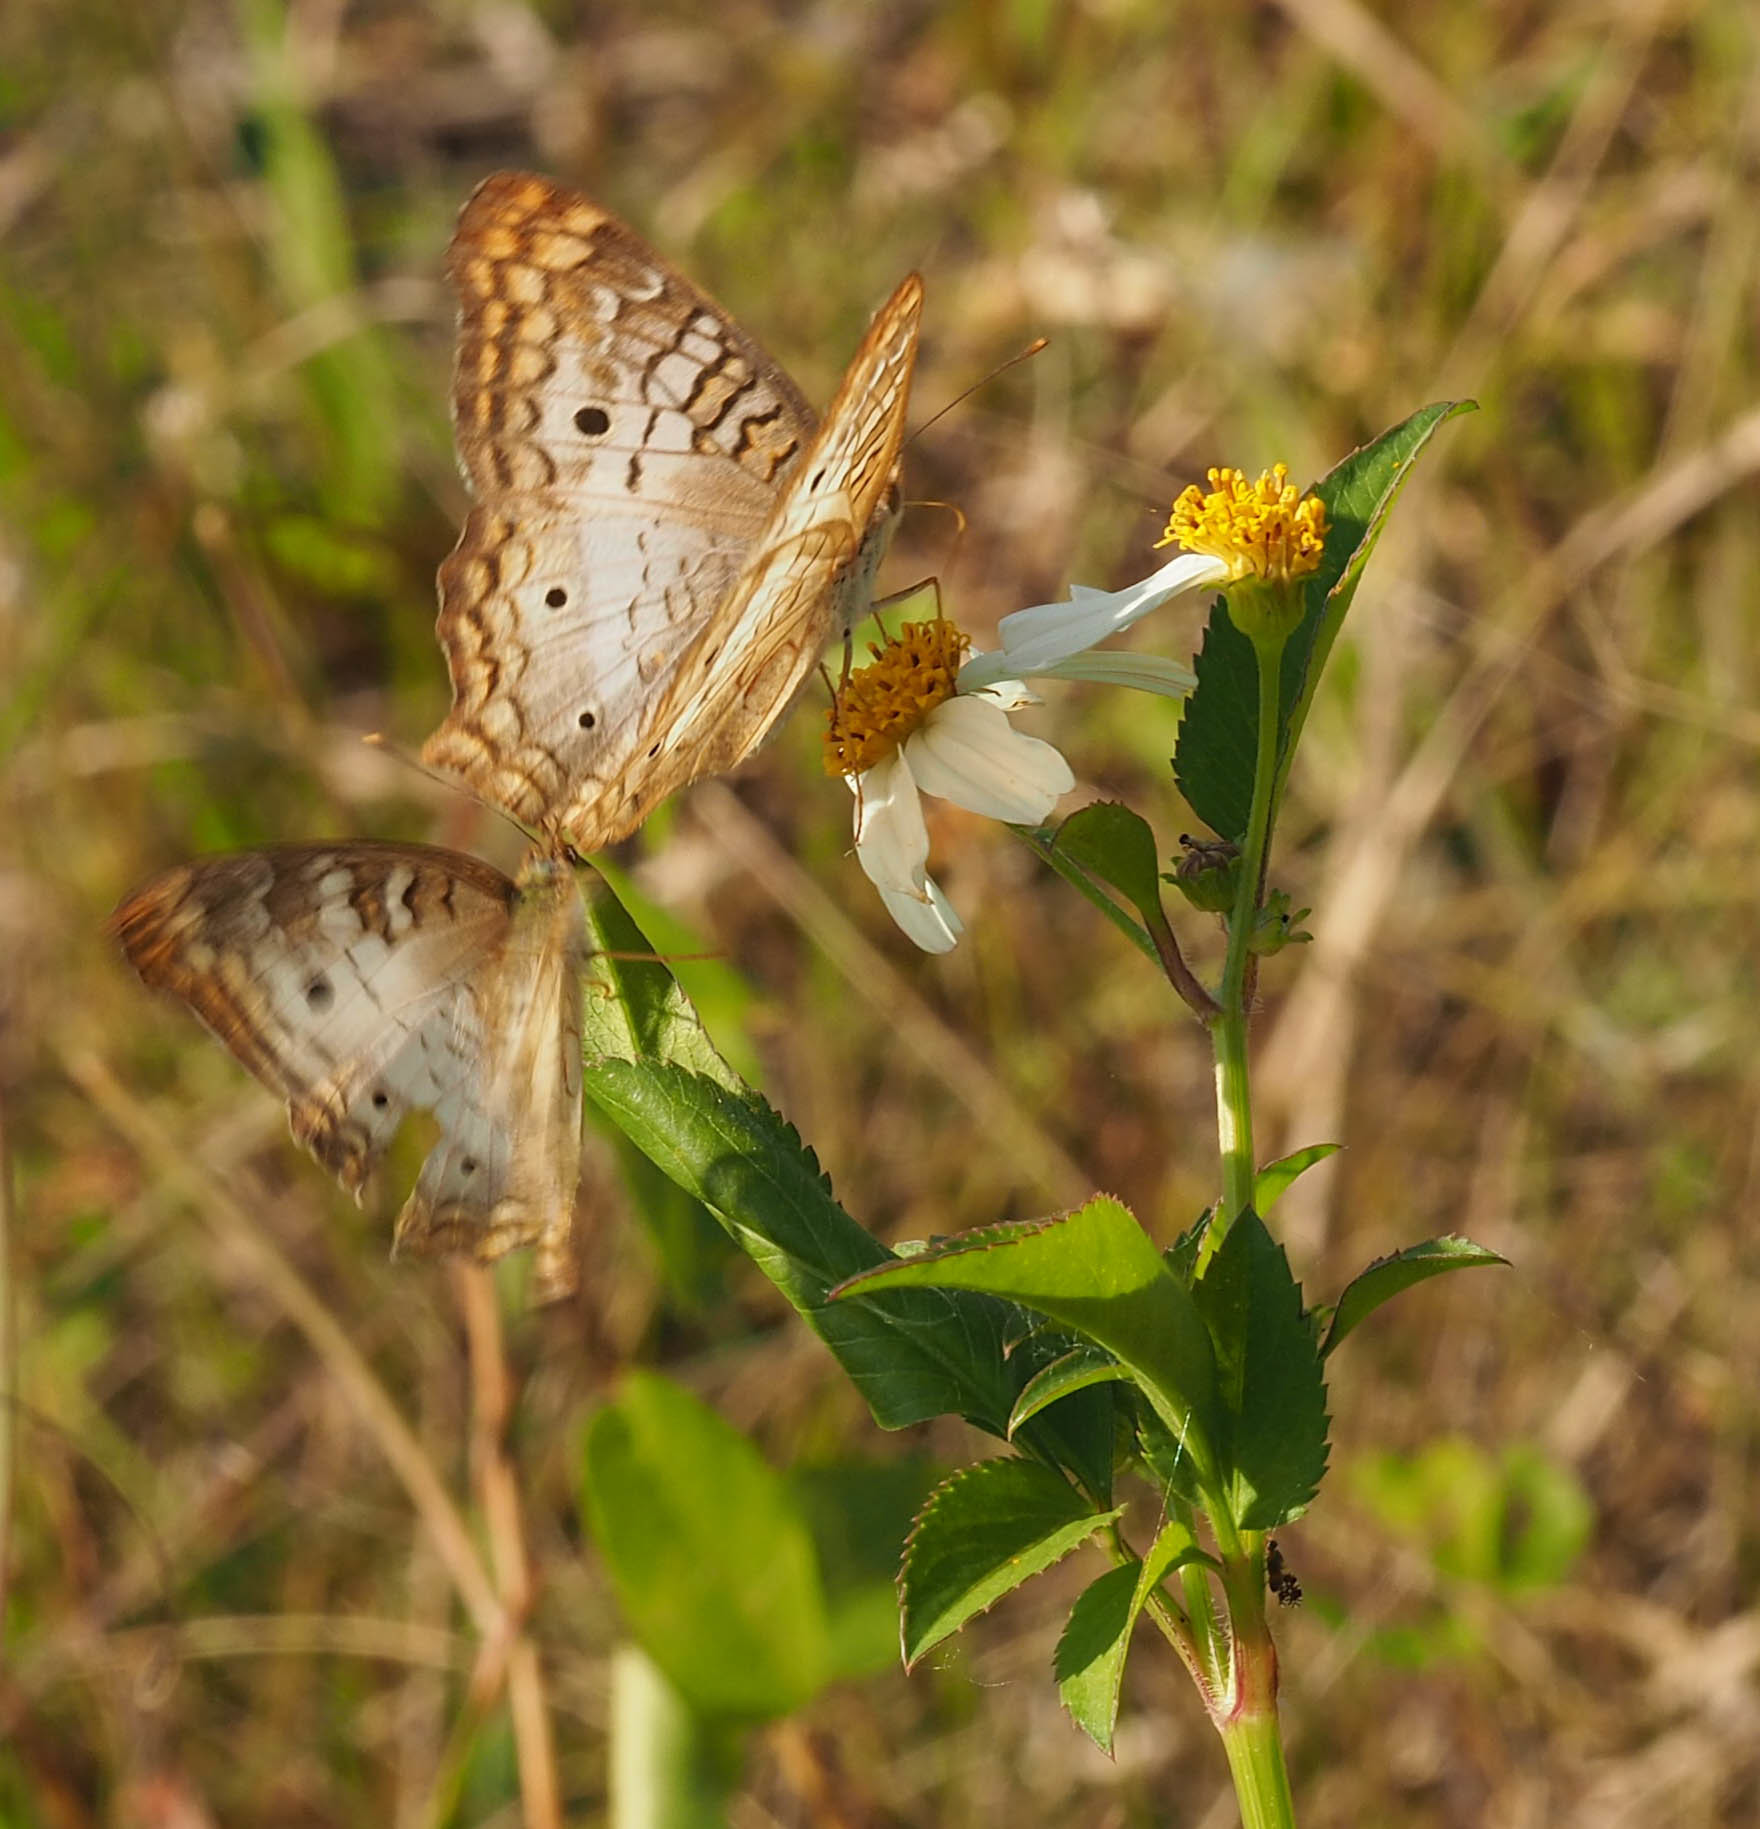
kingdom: Animalia
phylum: Arthropoda
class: Insecta
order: Lepidoptera
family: Nymphalidae
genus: Anartia
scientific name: Anartia jatrophae
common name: White peacock
